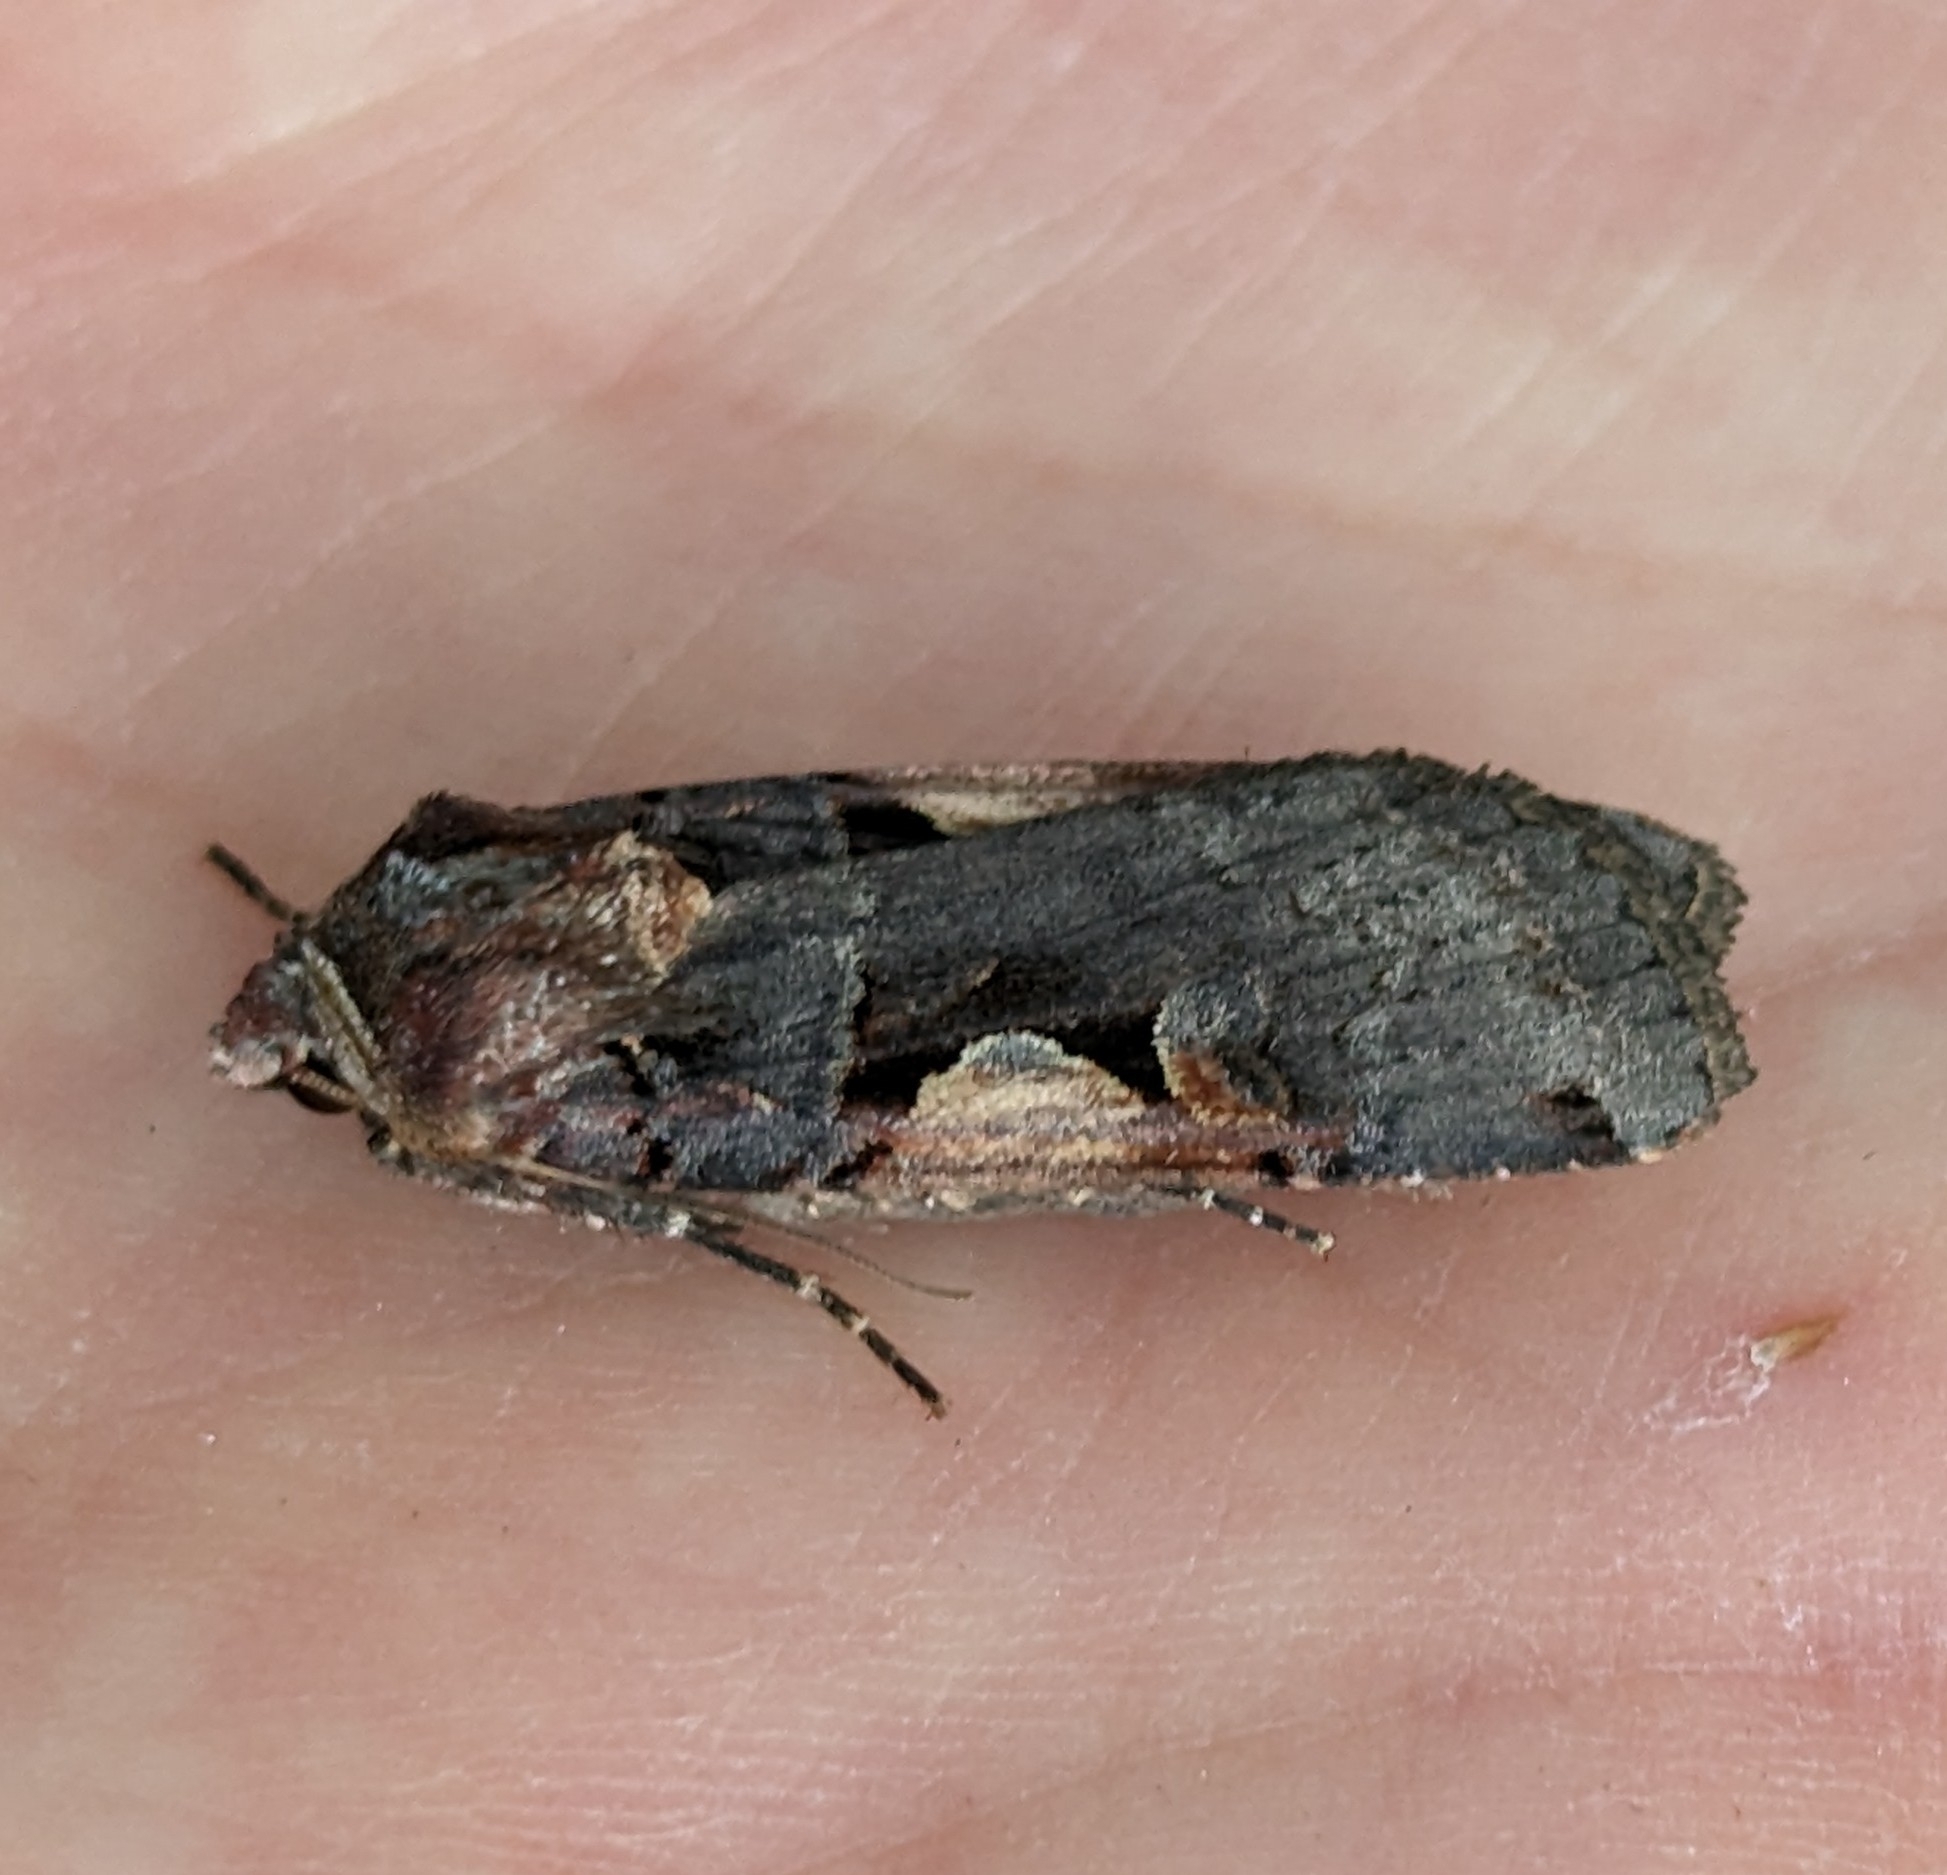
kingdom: Animalia
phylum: Arthropoda
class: Insecta
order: Lepidoptera
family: Noctuidae
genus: Xestia
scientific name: Xestia c-nigrum
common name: Setaceous hebrew character
